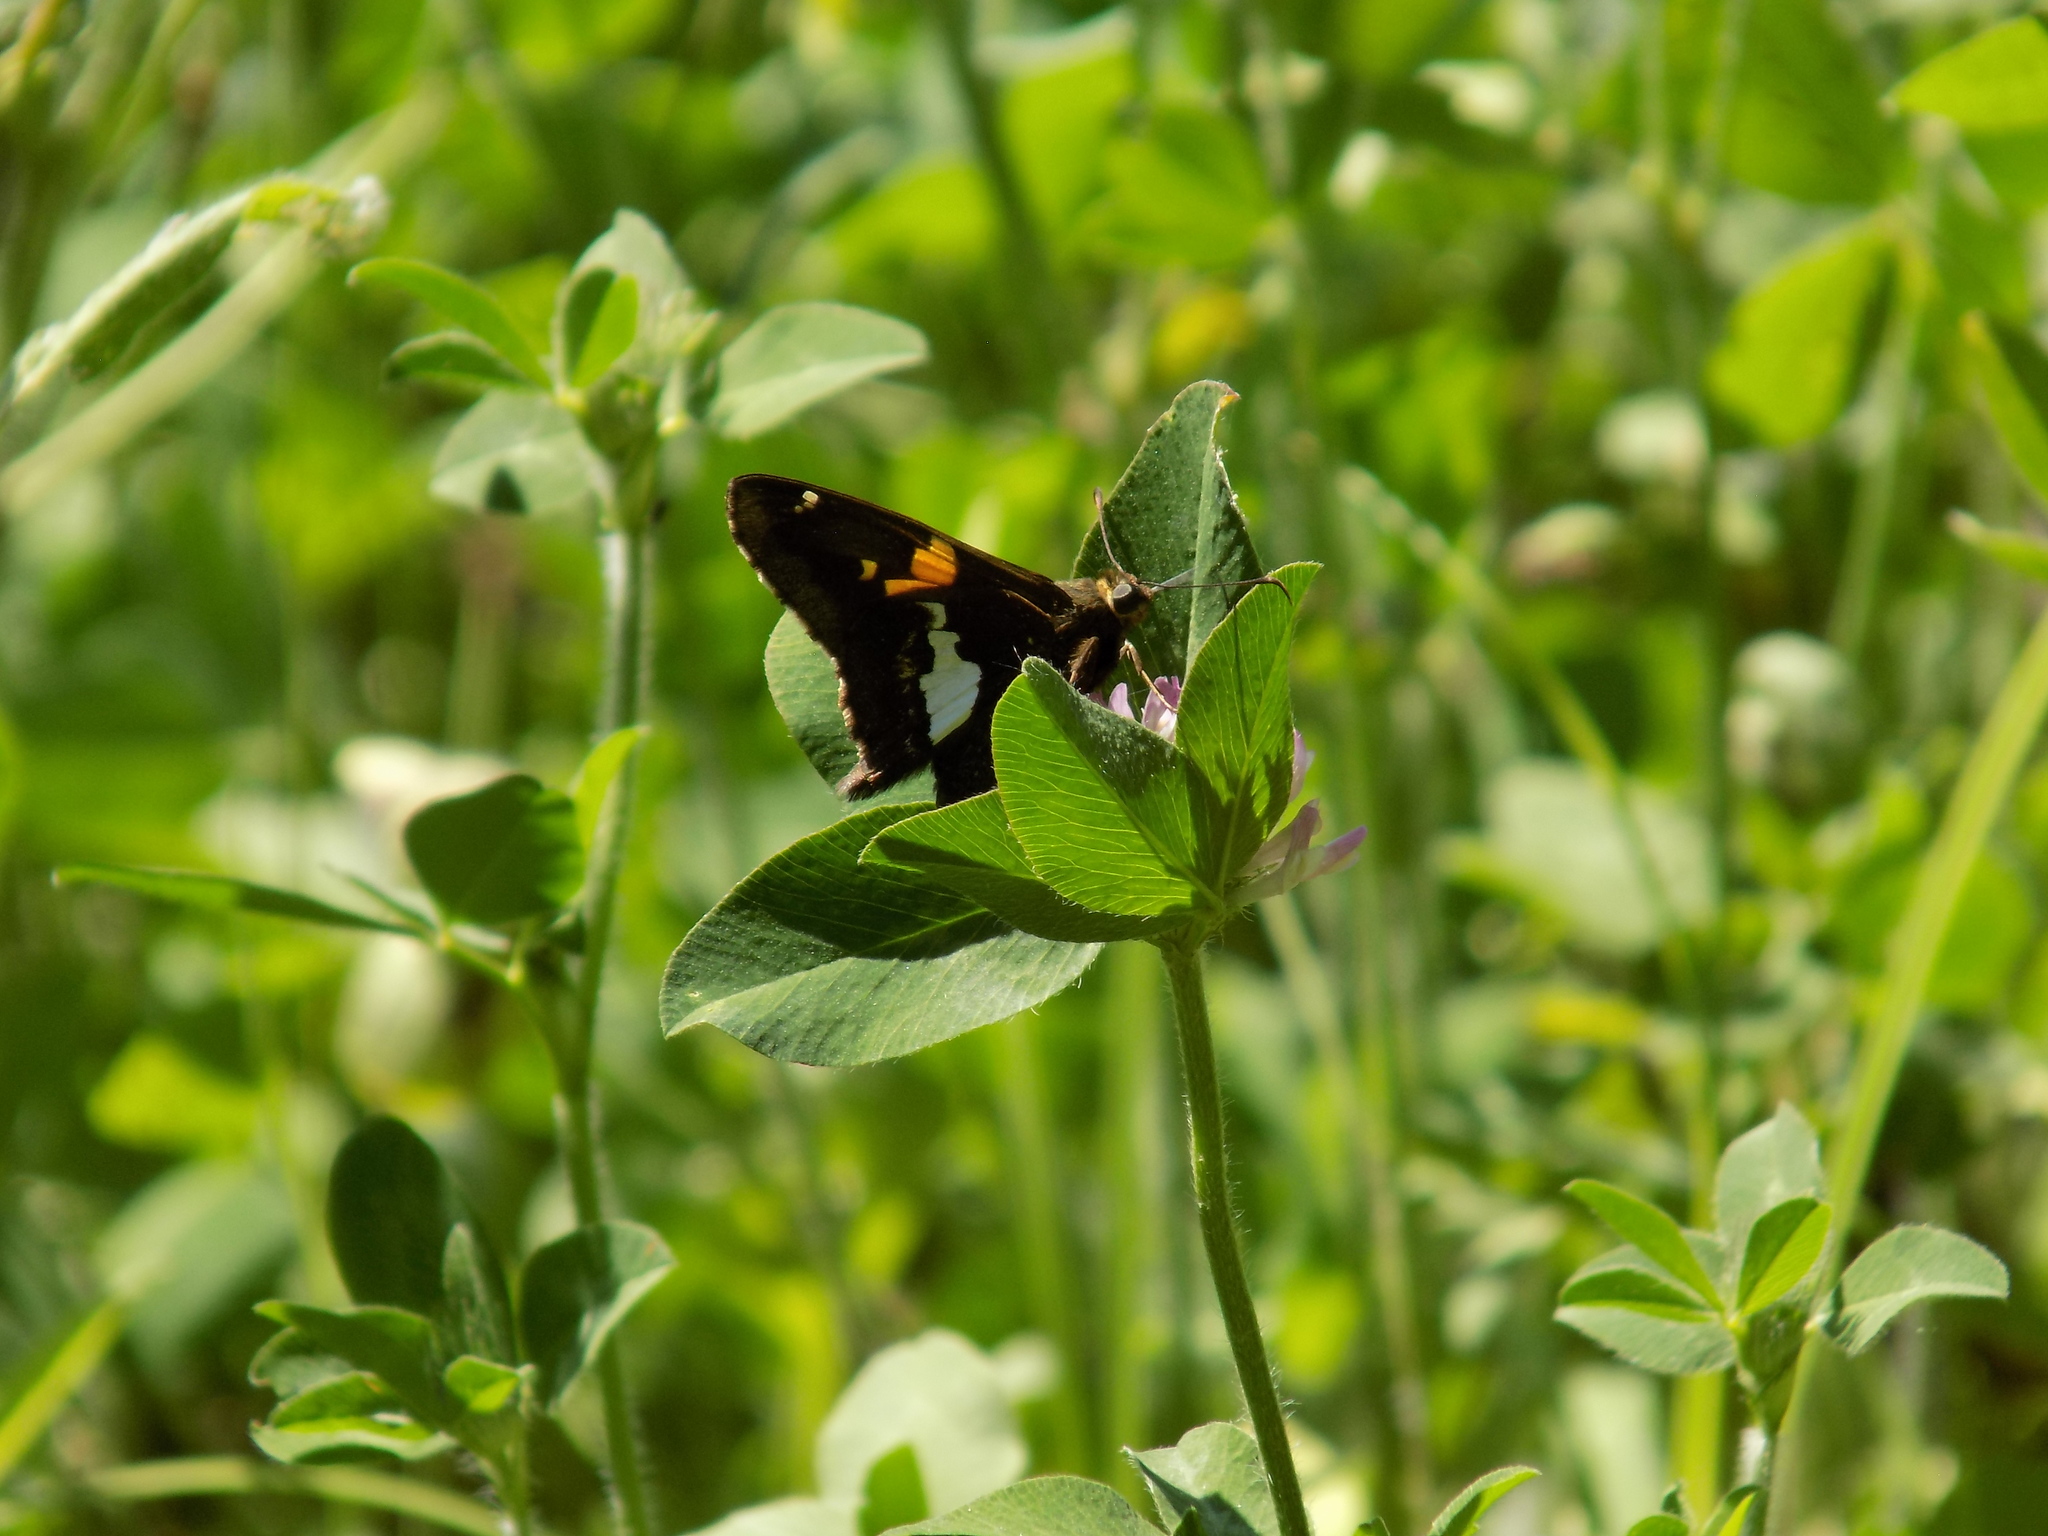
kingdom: Animalia
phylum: Arthropoda
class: Insecta
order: Lepidoptera
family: Hesperiidae
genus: Epargyreus
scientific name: Epargyreus clarus
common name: Silver-spotted skipper
